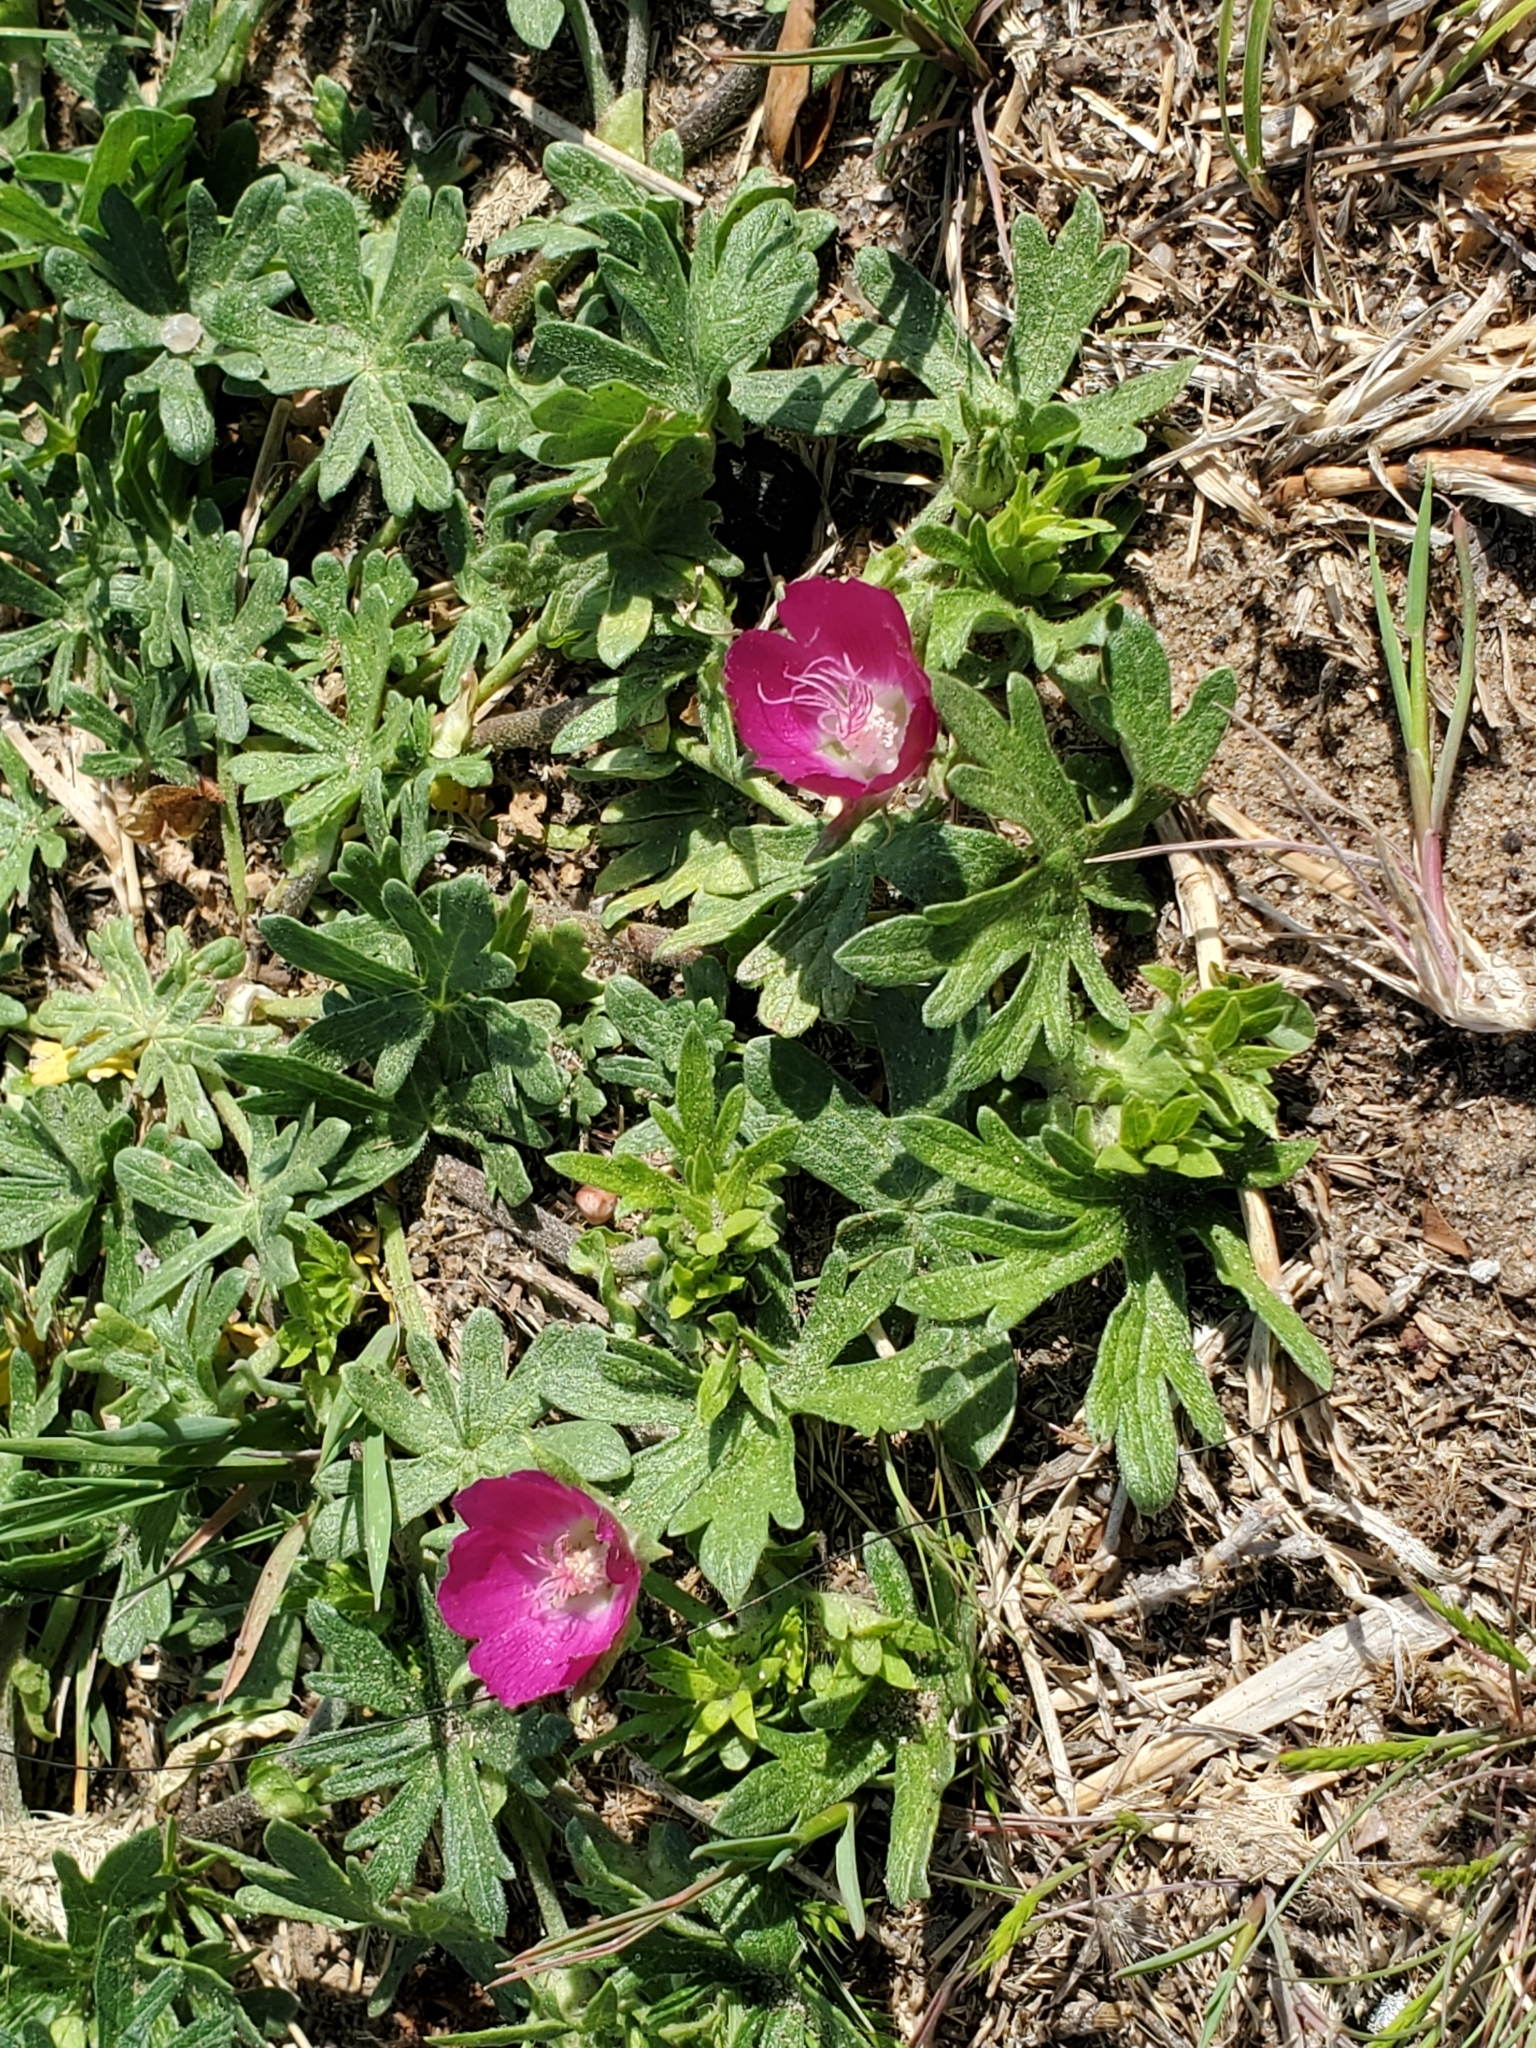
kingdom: Plantae
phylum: Tracheophyta
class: Magnoliopsida
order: Malvales
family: Malvaceae
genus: Callirhoe
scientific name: Callirhoe involucrata
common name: Purple poppy-mallow
